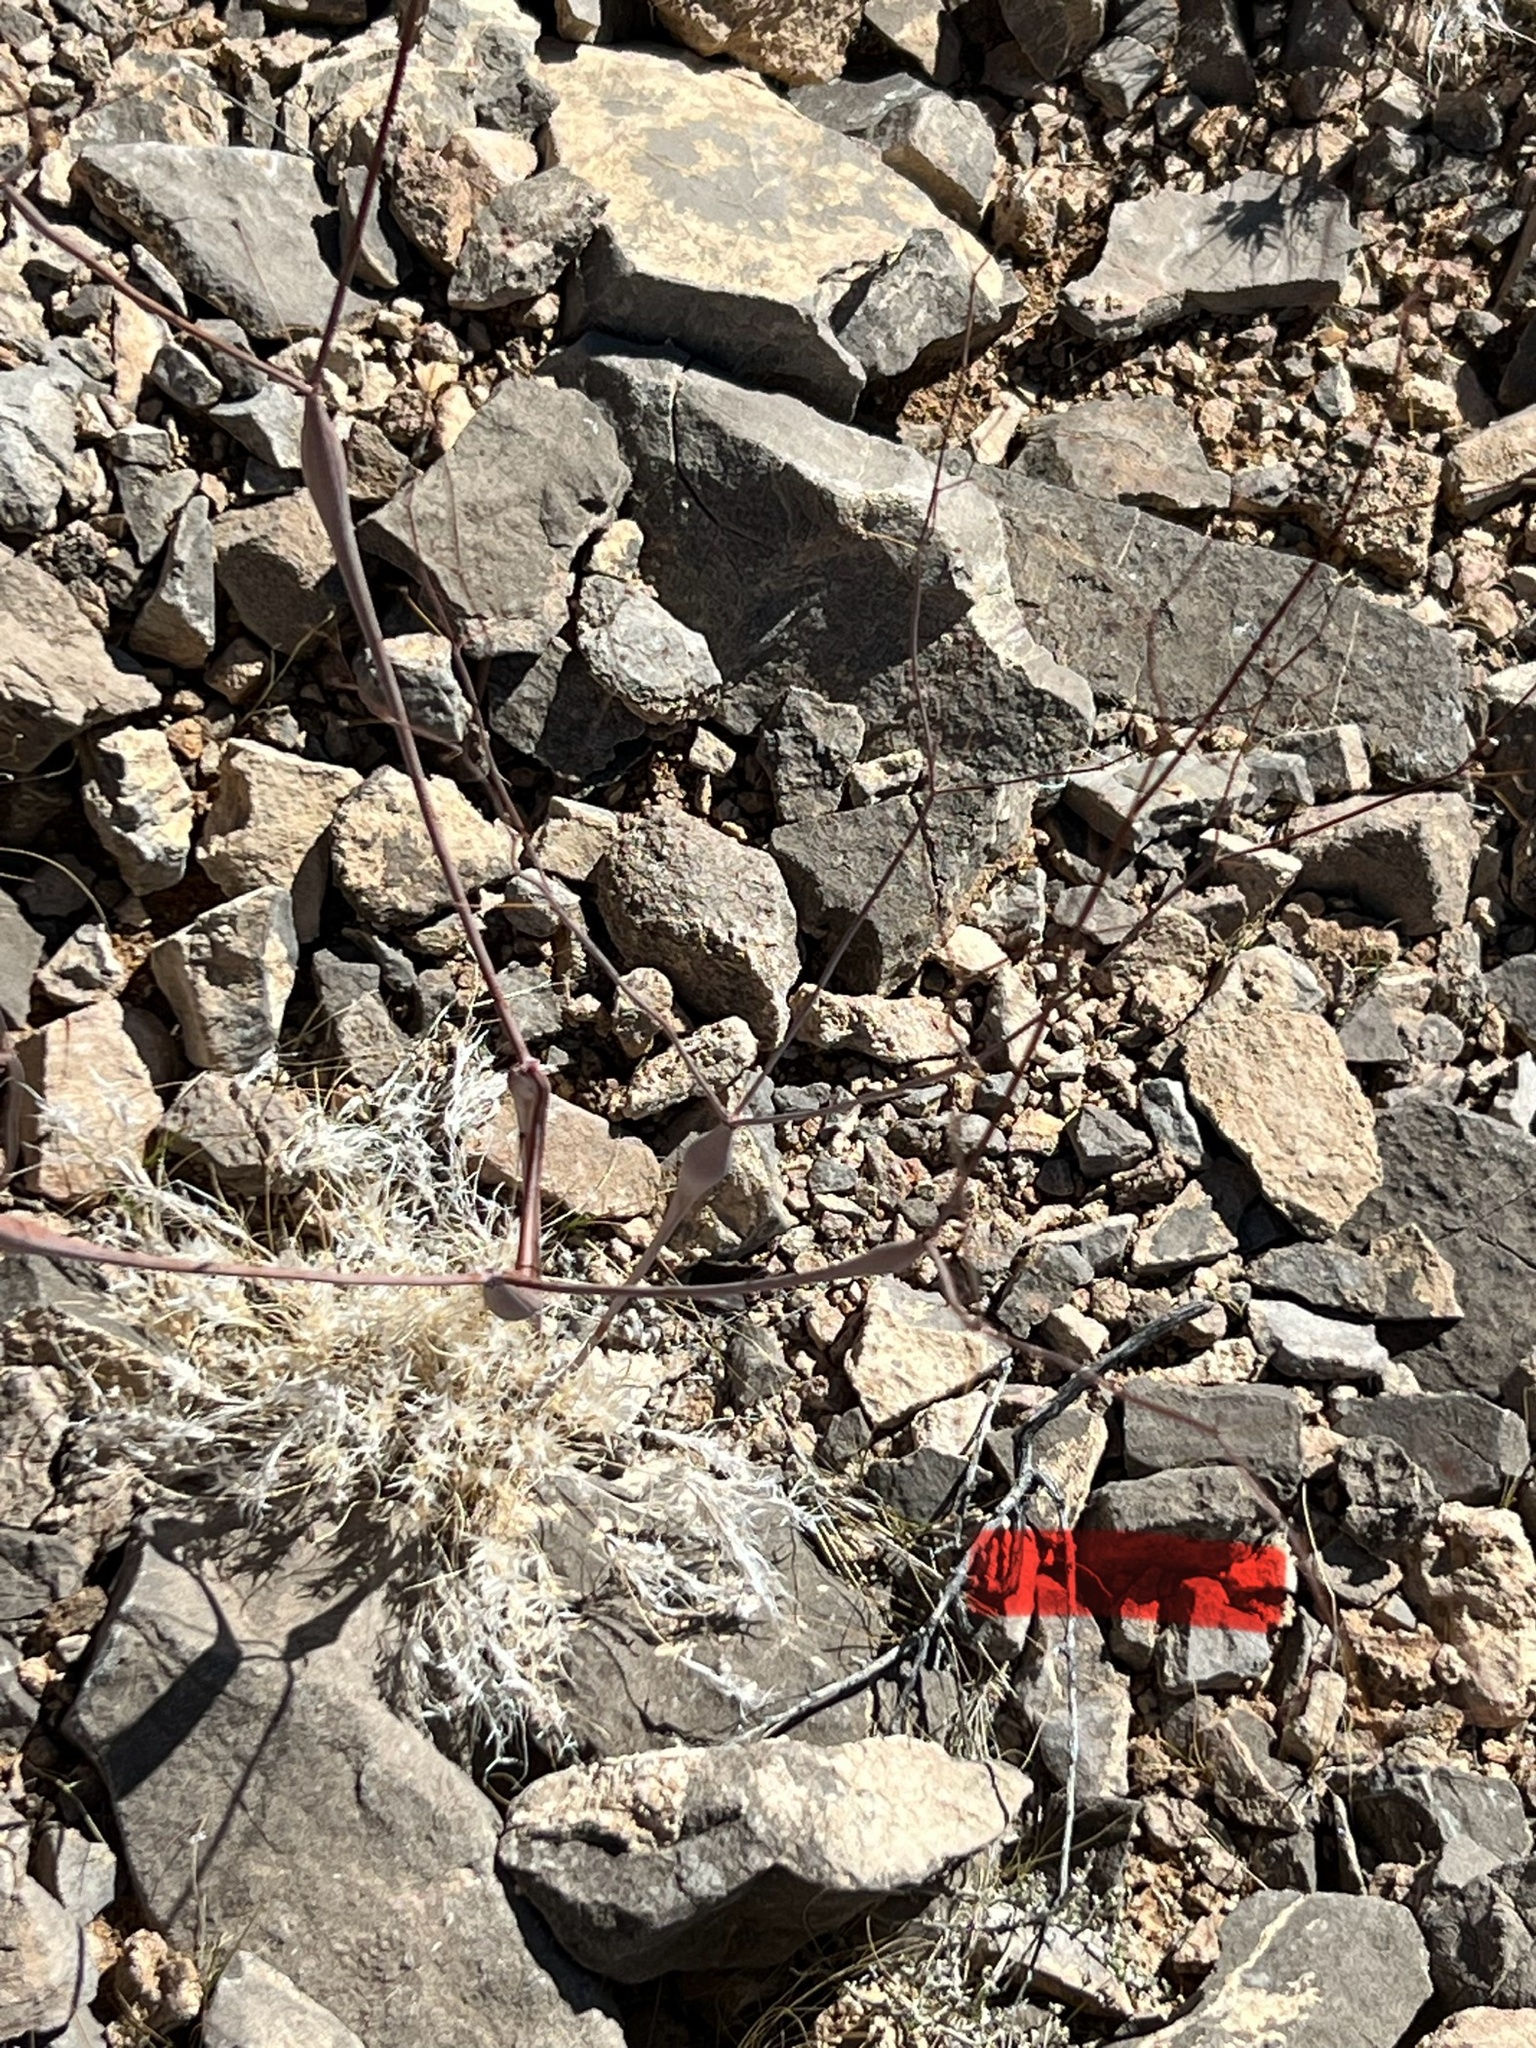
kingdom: Plantae
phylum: Tracheophyta
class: Magnoliopsida
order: Caryophyllales
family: Polygonaceae
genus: Eriogonum
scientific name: Eriogonum inflatum
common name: Desert trumpet
